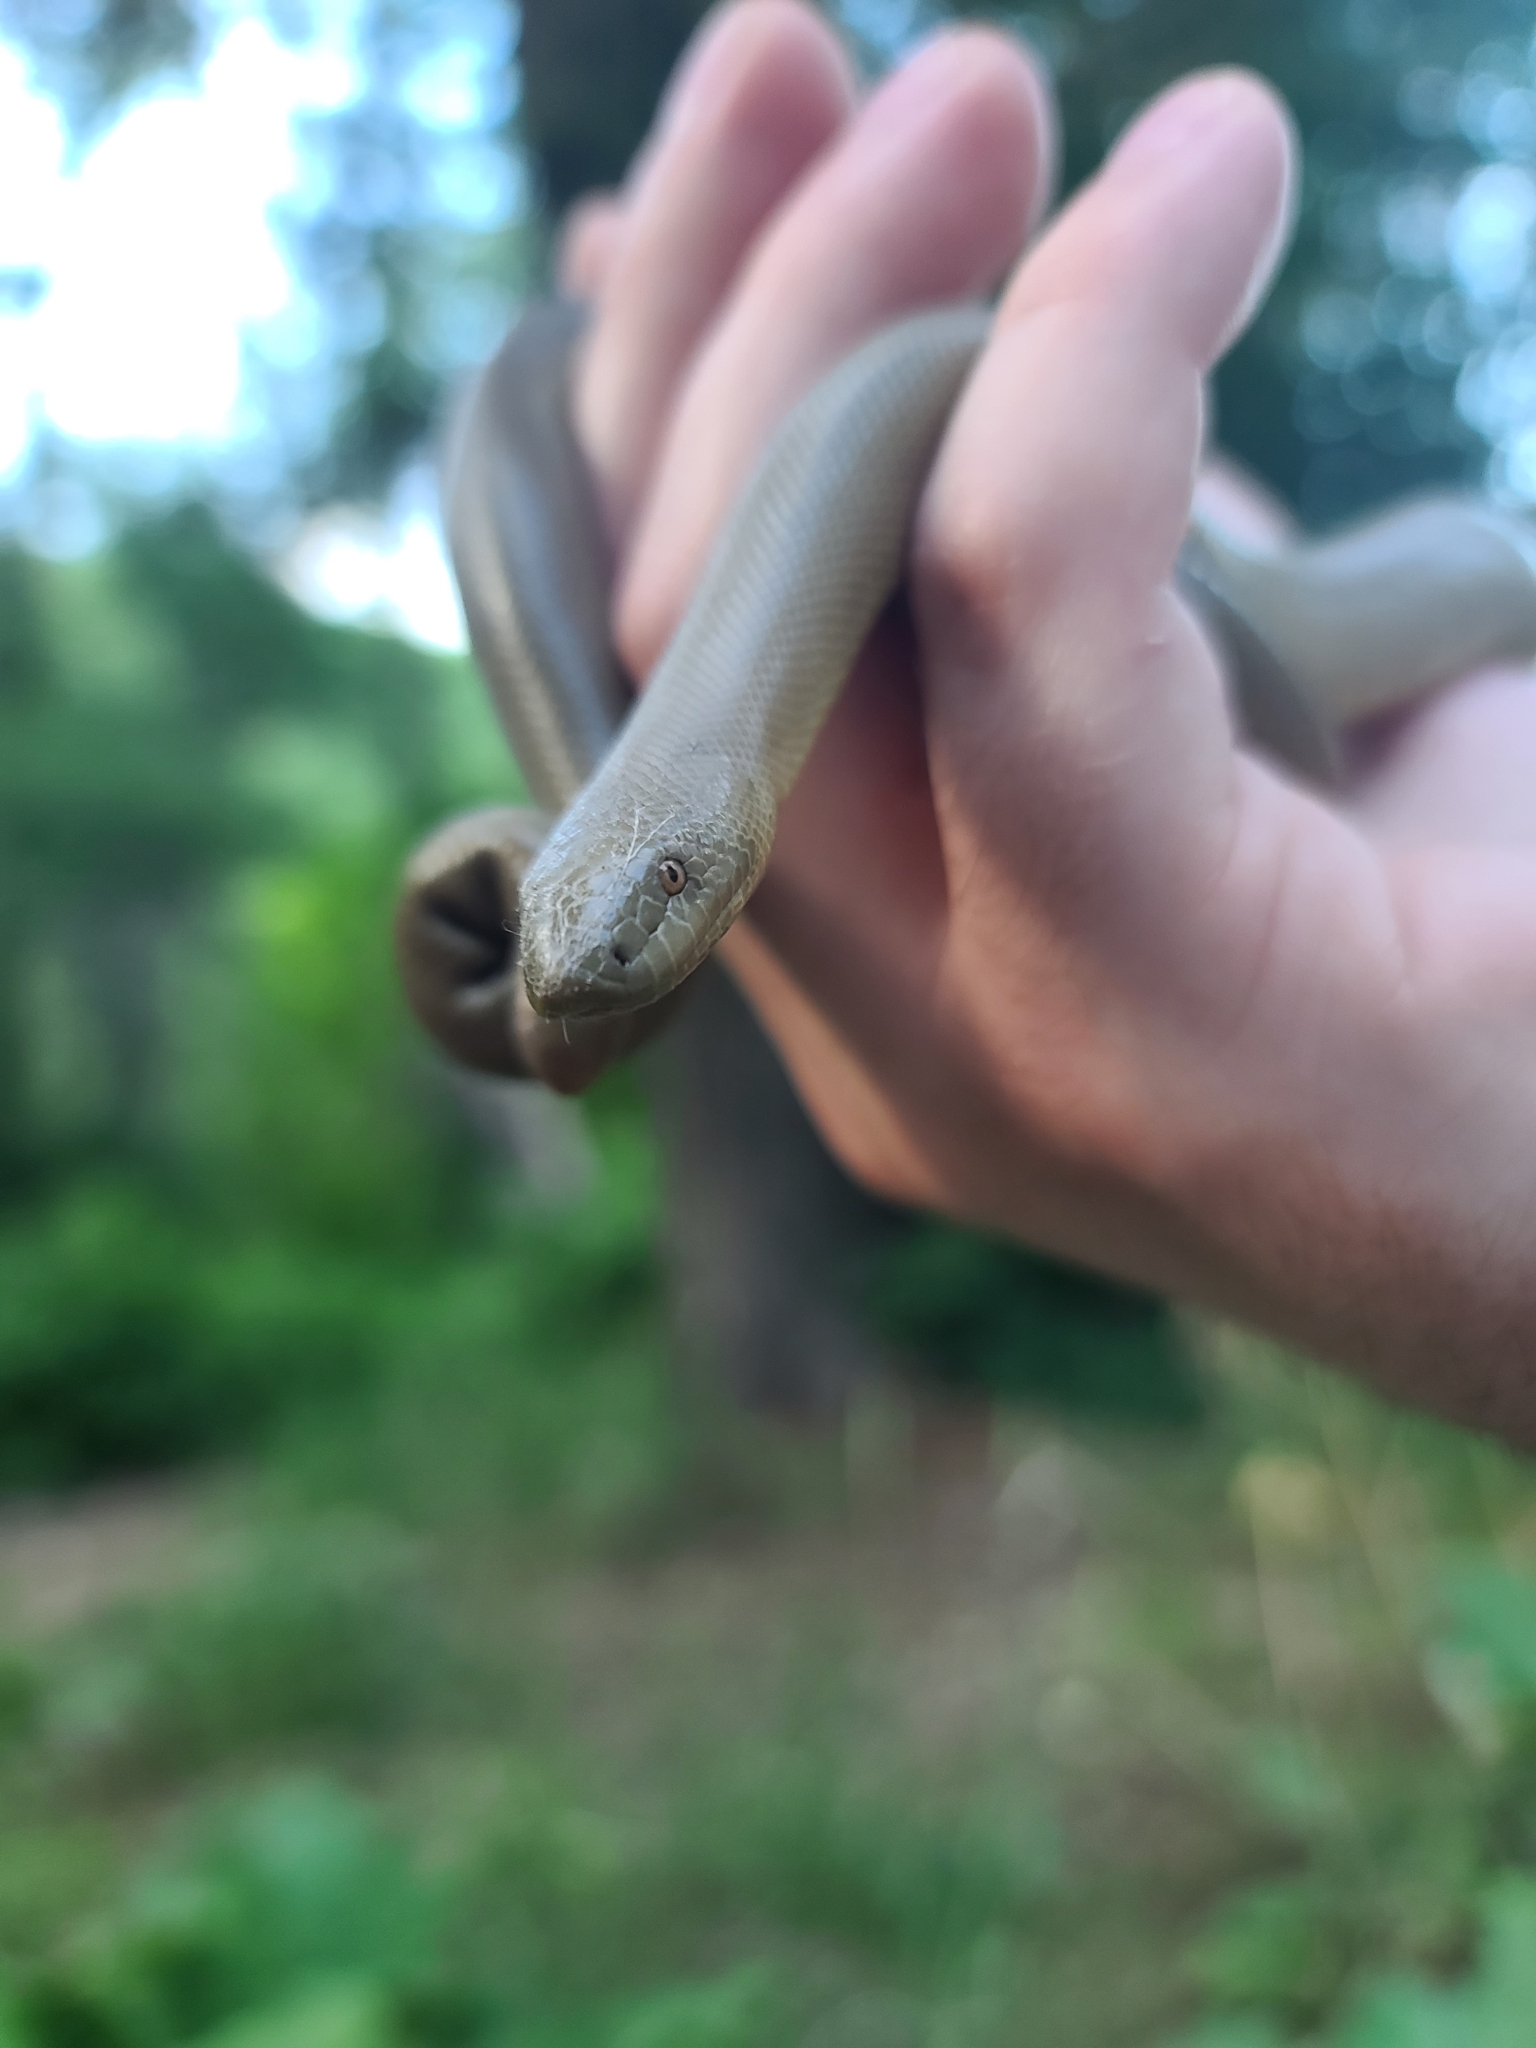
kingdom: Animalia
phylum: Chordata
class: Squamata
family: Boidae
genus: Charina
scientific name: Charina bottae
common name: Northern rubber boa
